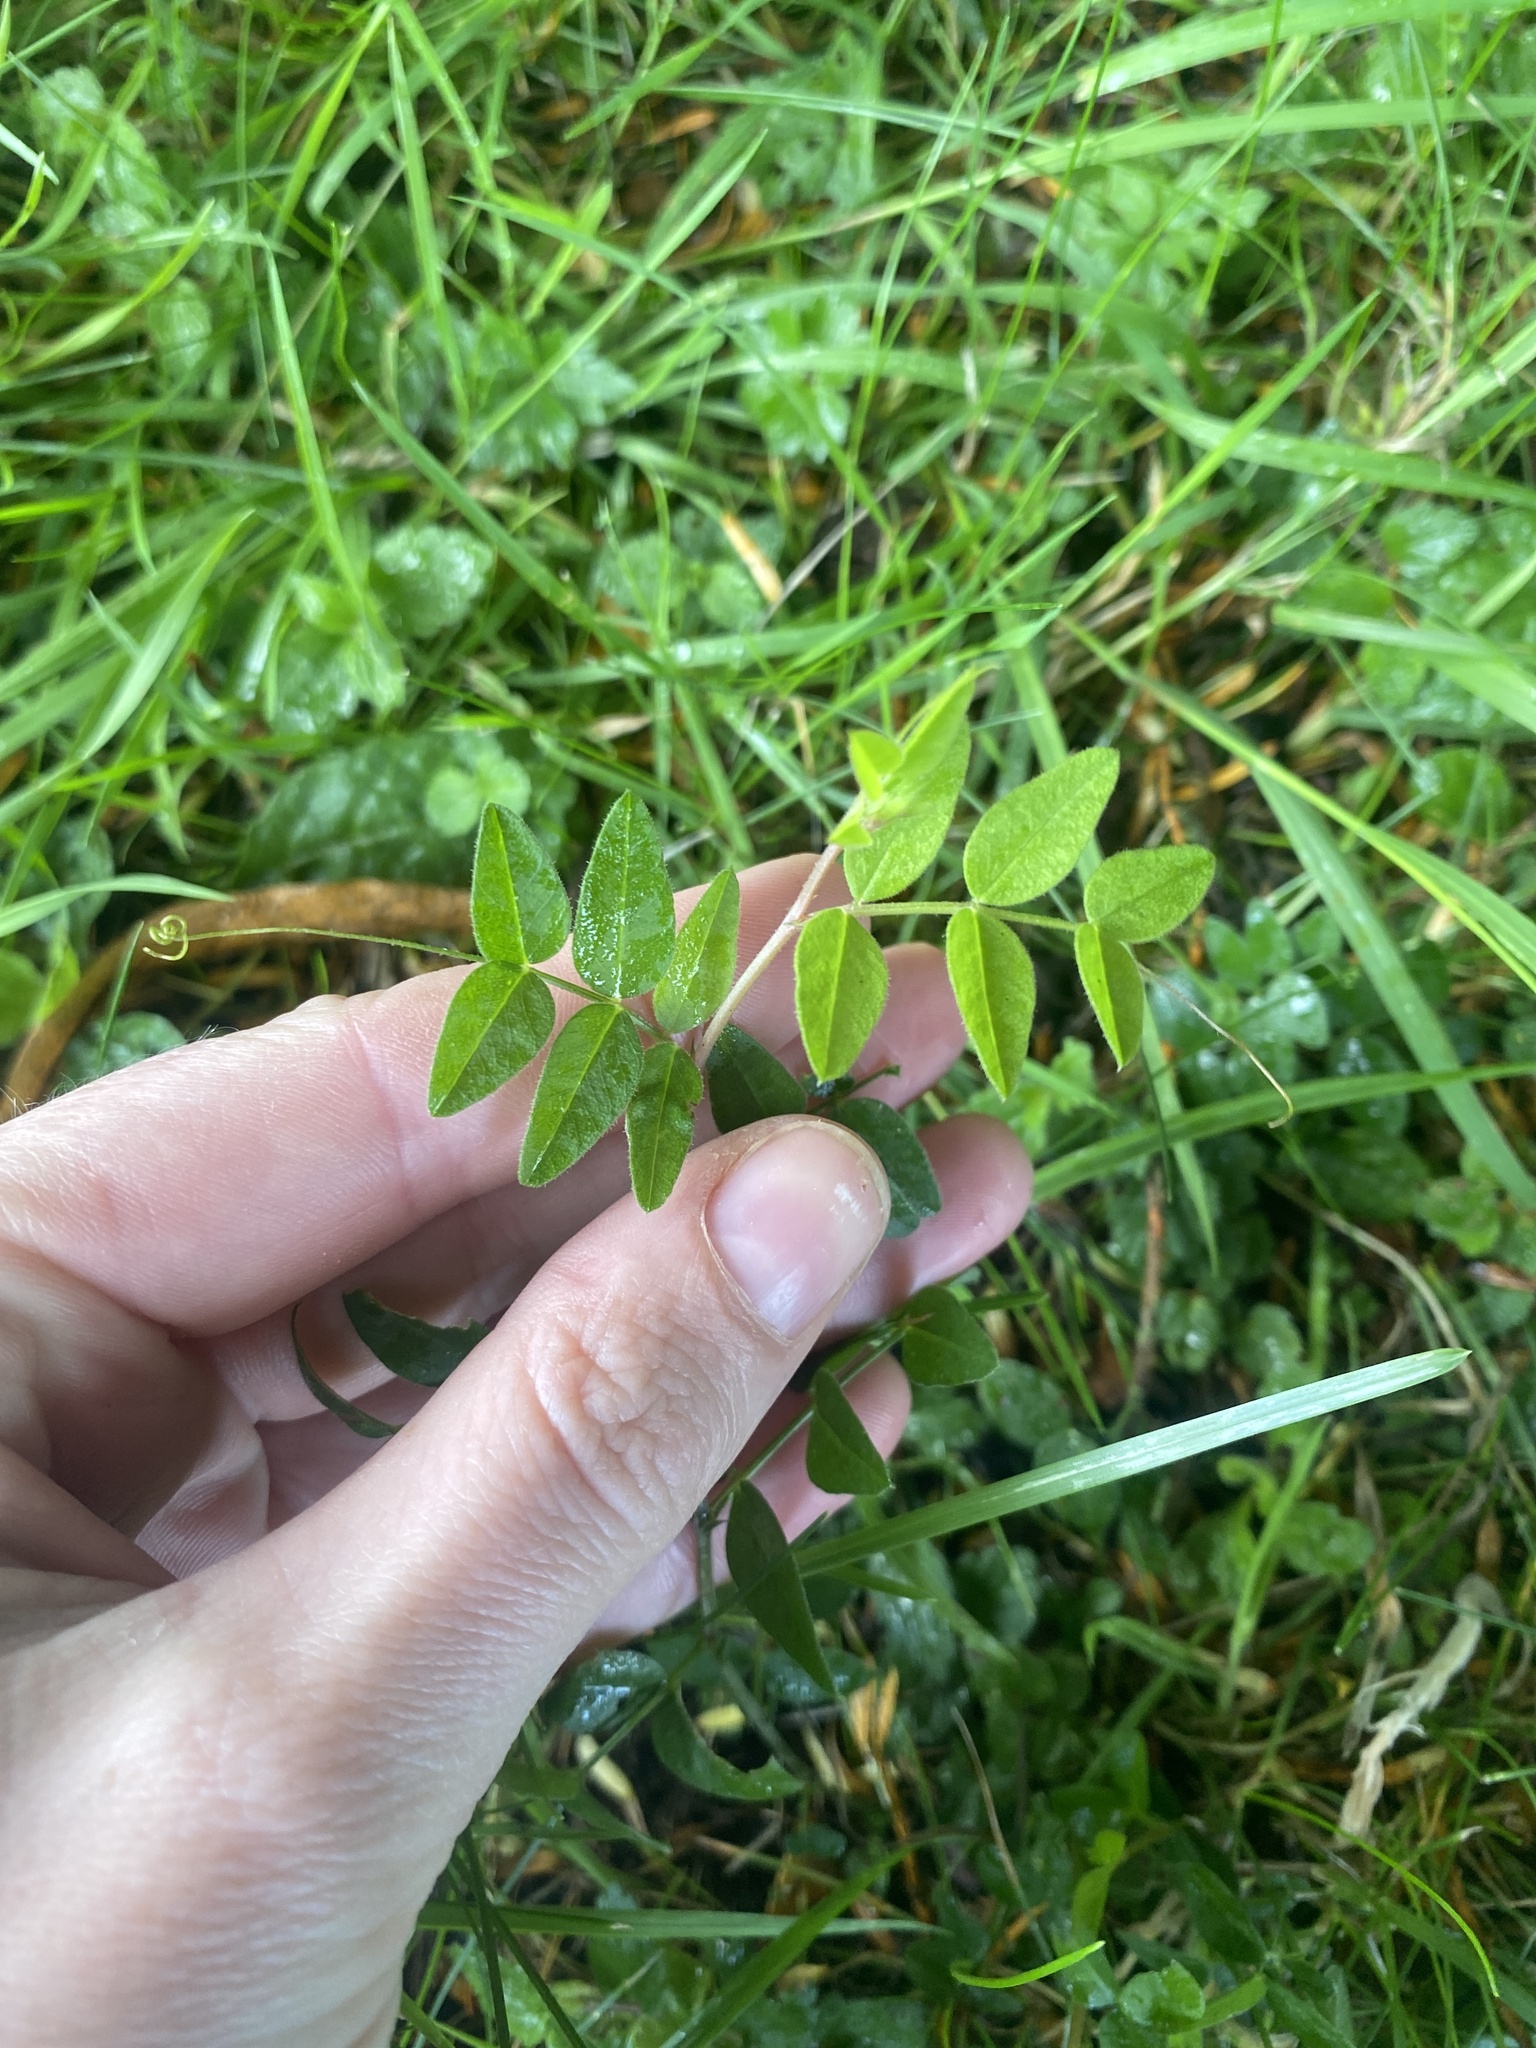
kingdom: Plantae
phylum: Tracheophyta
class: Magnoliopsida
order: Fabales
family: Fabaceae
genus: Vicia
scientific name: Vicia sepium
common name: Bush vetch
